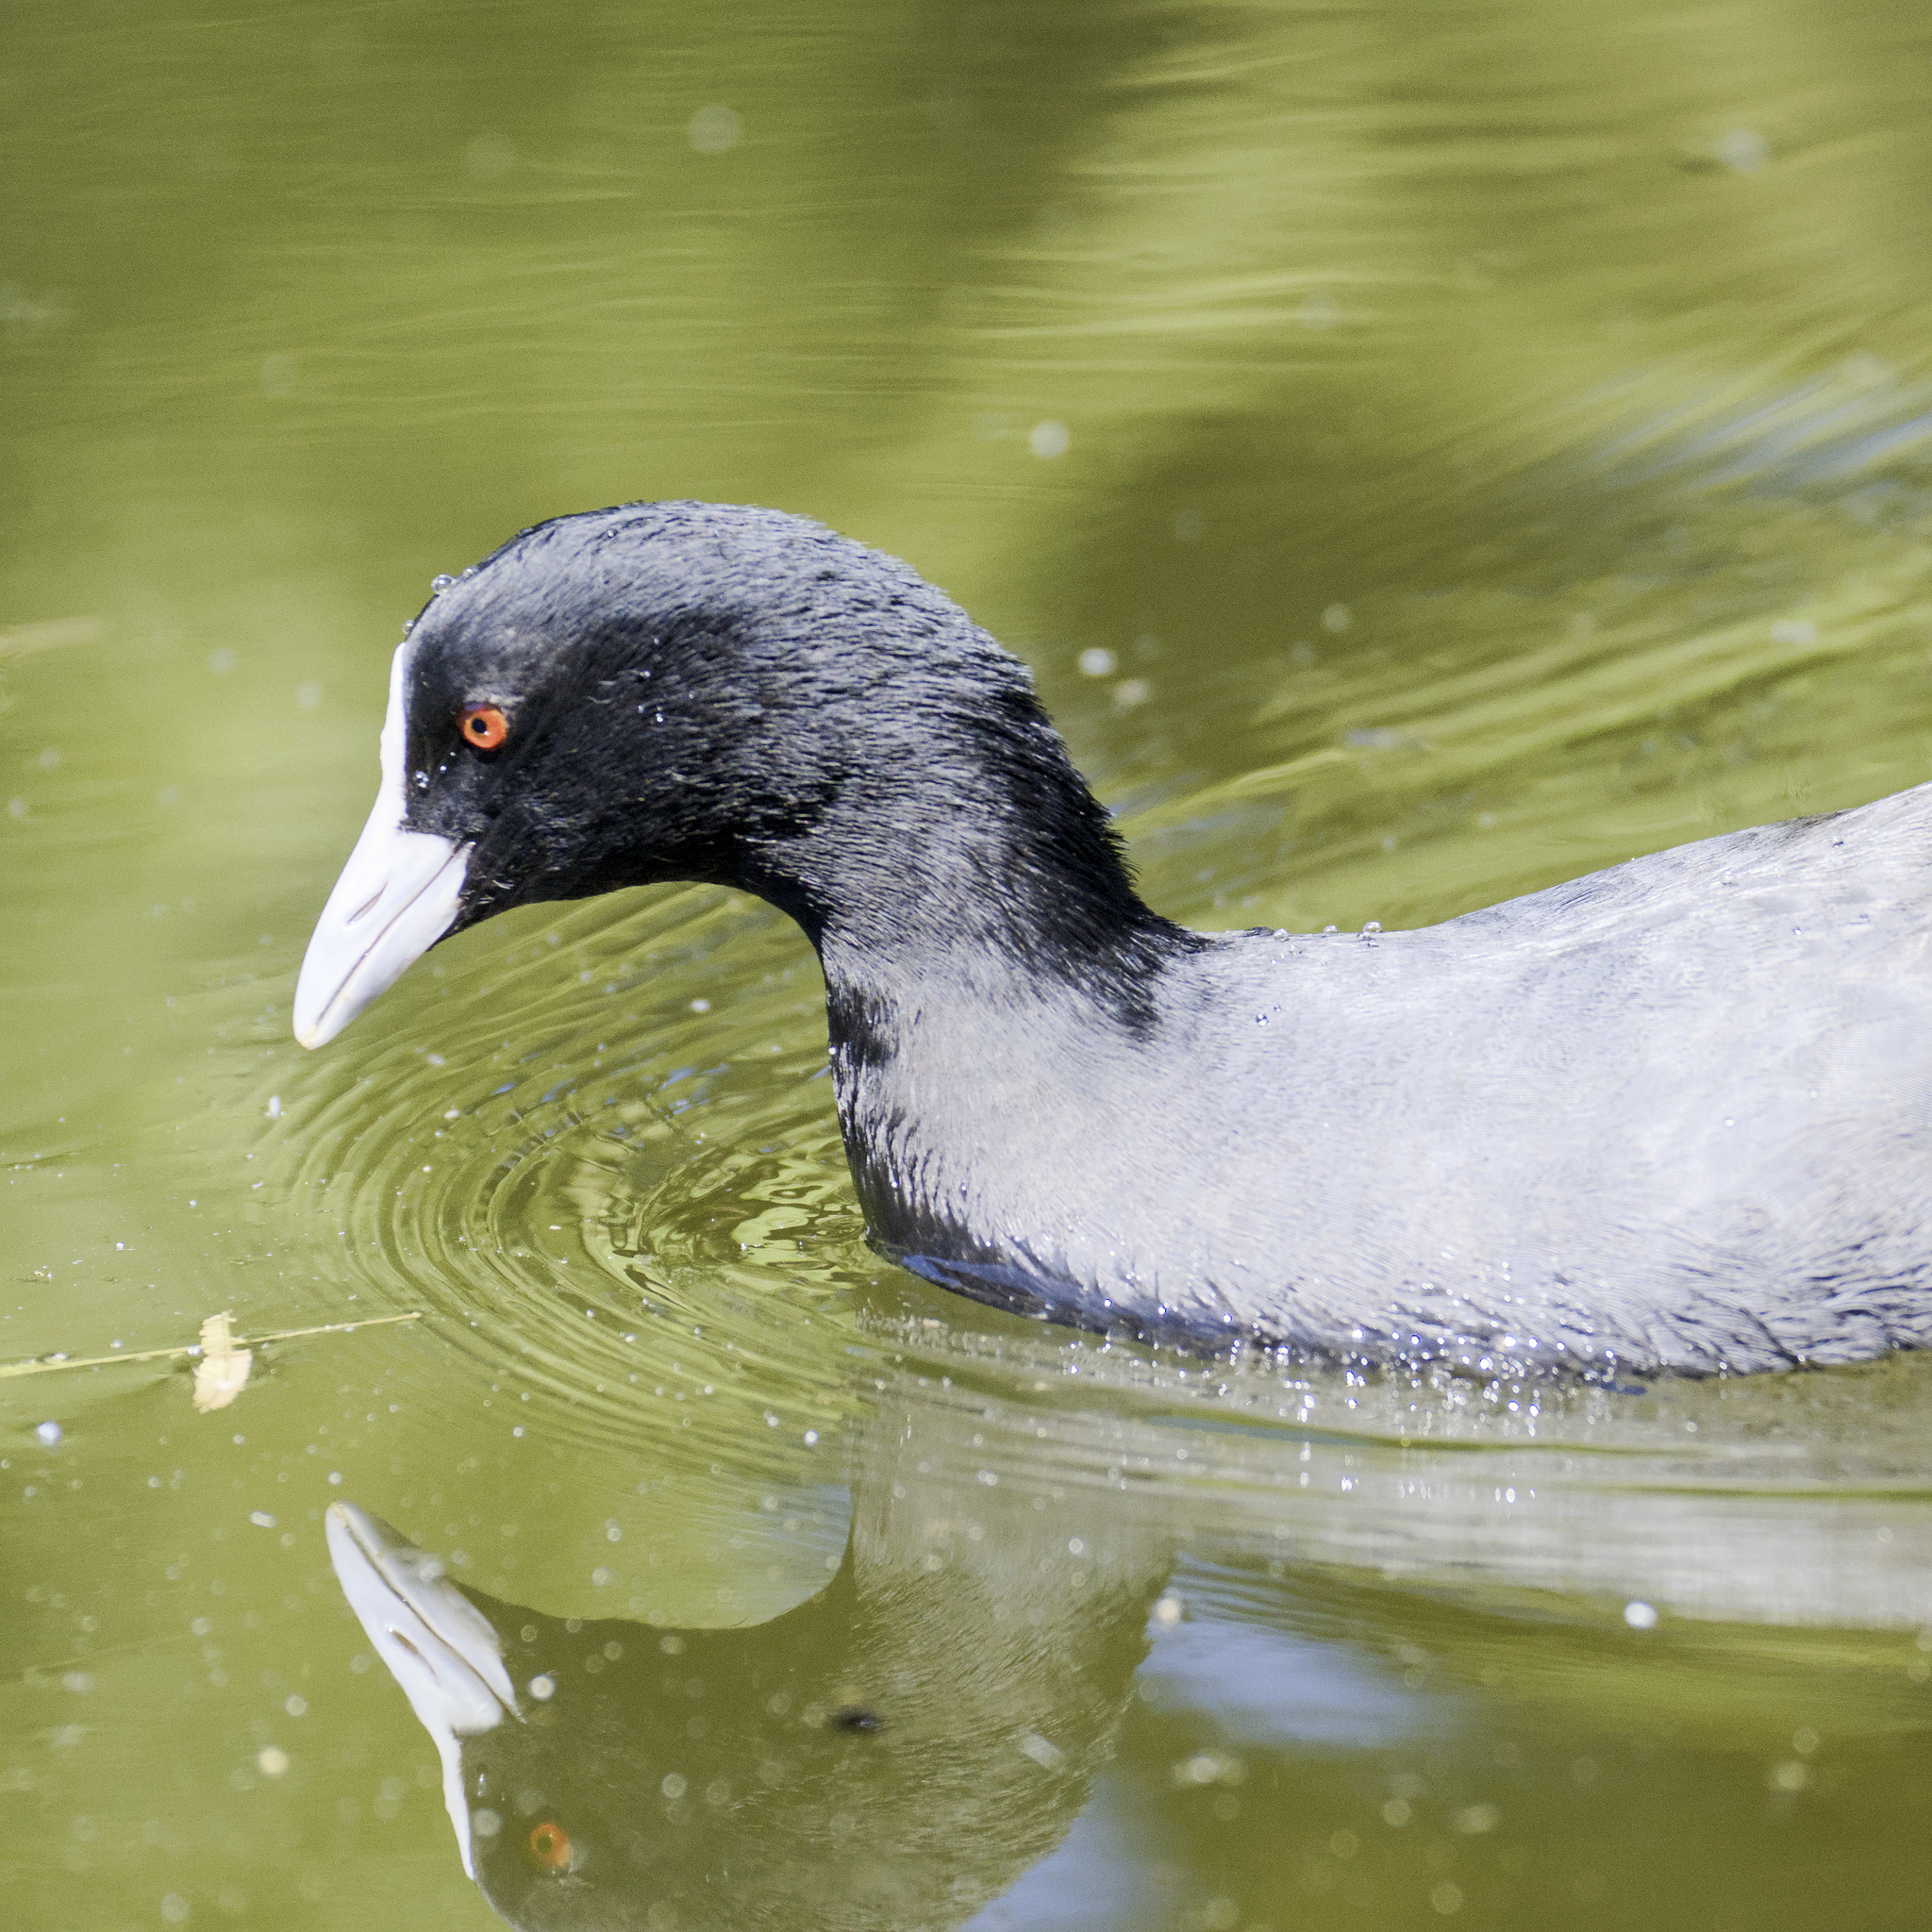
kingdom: Animalia
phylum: Chordata
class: Aves
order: Gruiformes
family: Rallidae
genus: Fulica
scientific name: Fulica atra
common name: Eurasian coot
